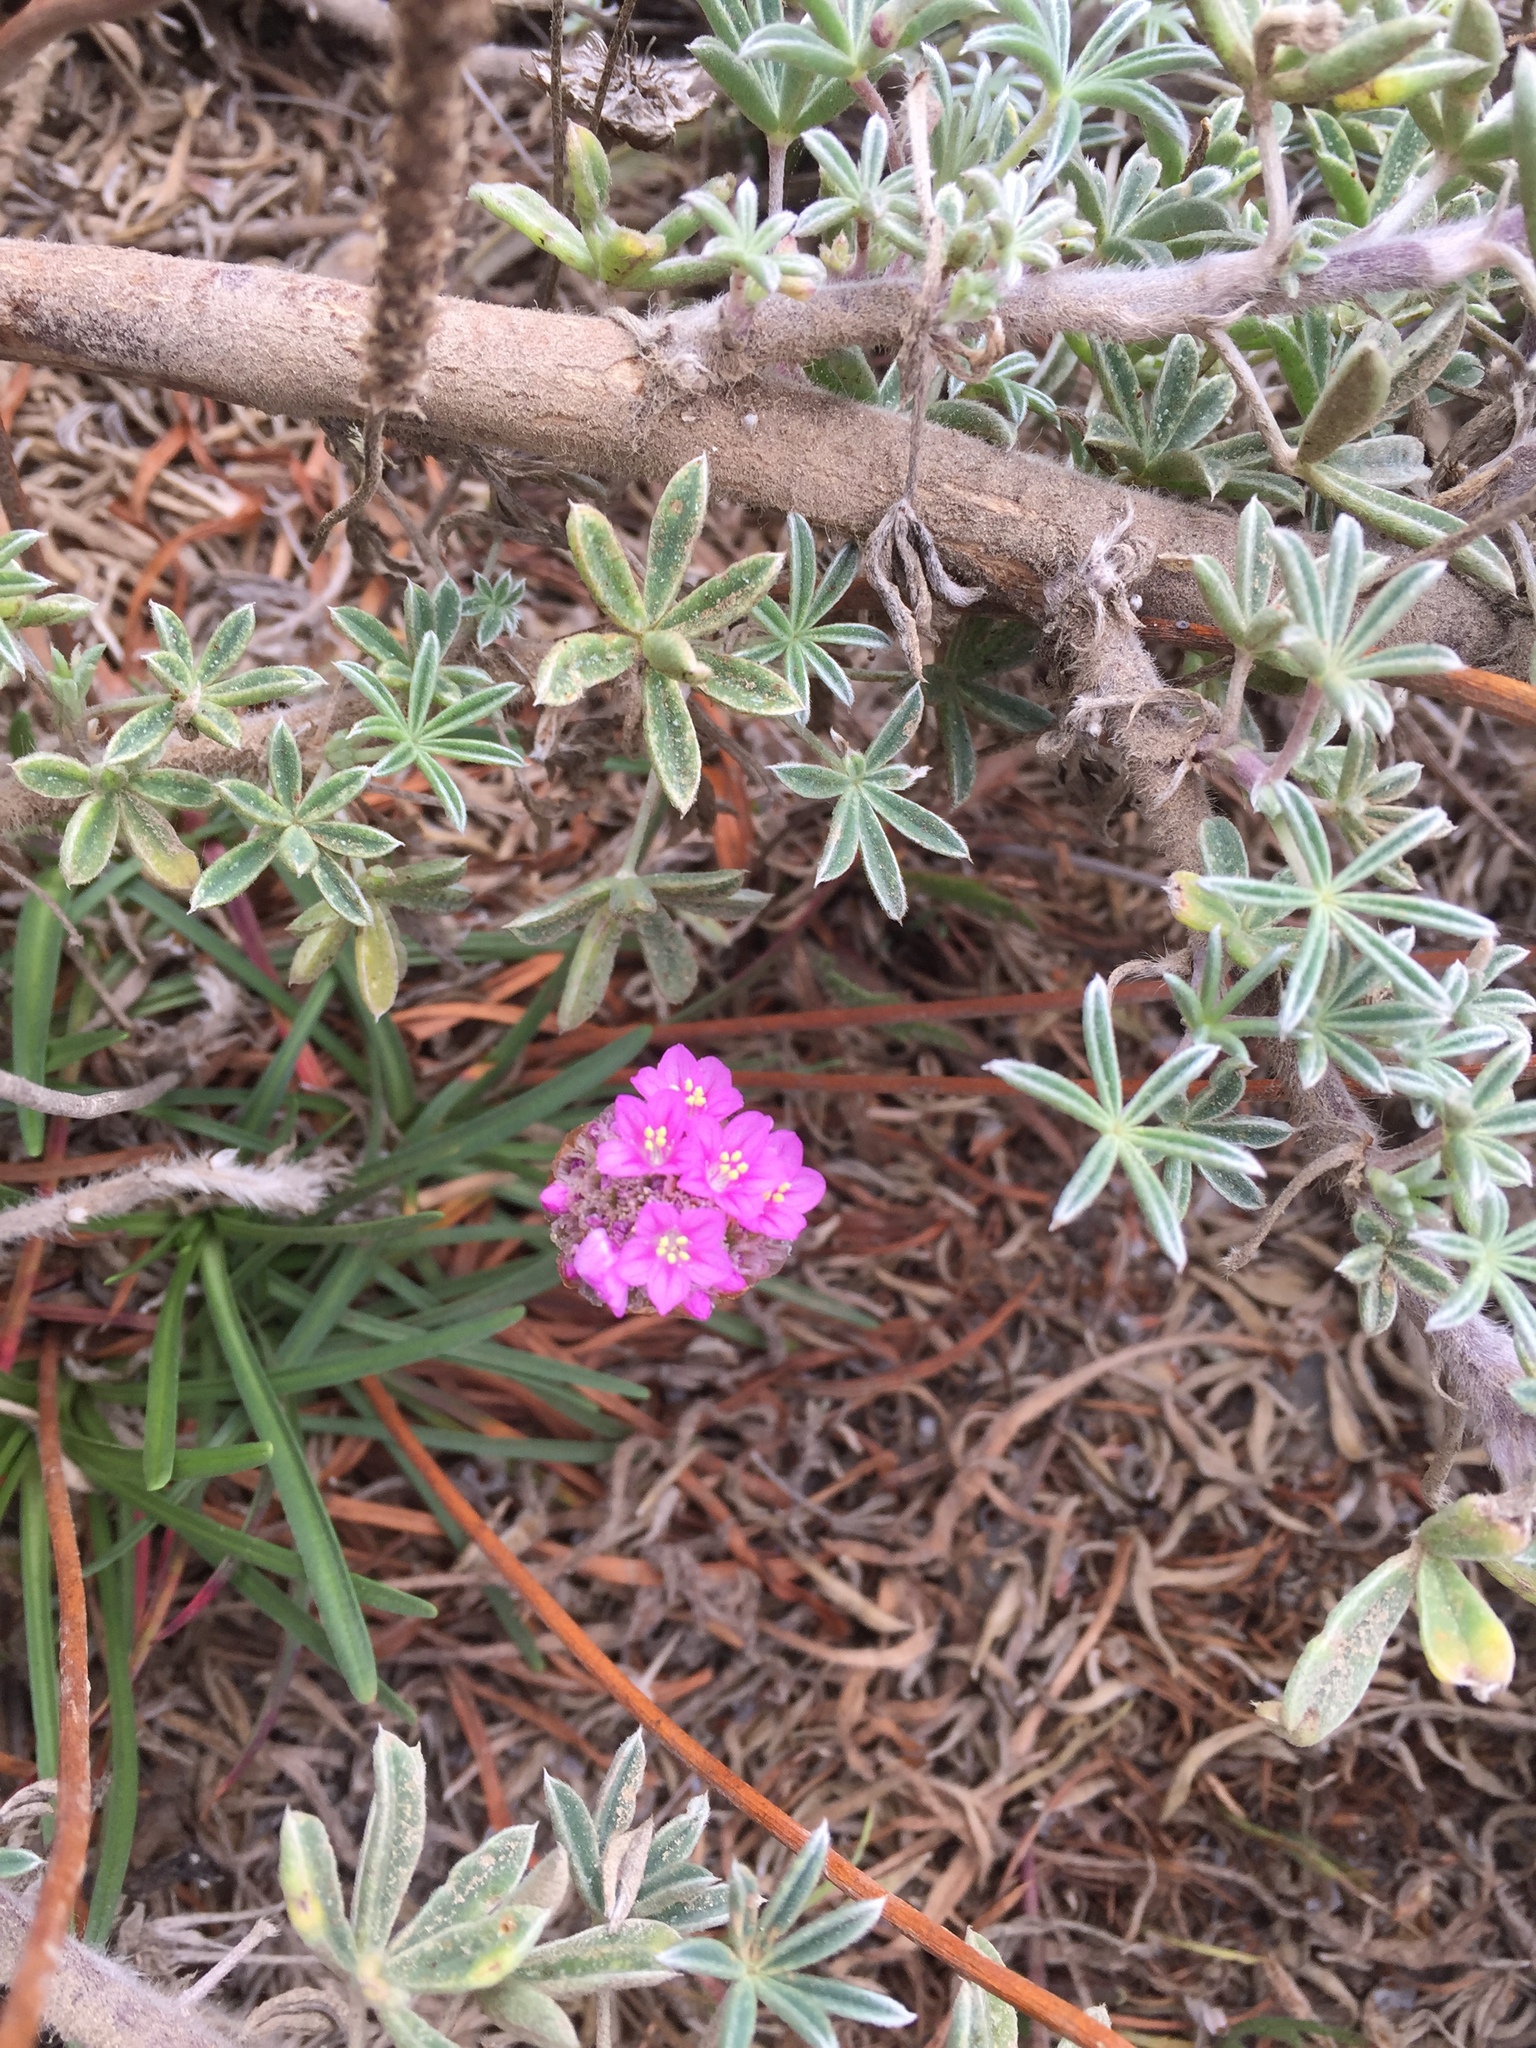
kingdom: Plantae
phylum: Tracheophyta
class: Magnoliopsida
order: Caryophyllales
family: Plumbaginaceae
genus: Armeria
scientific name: Armeria maritima
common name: Thrift
